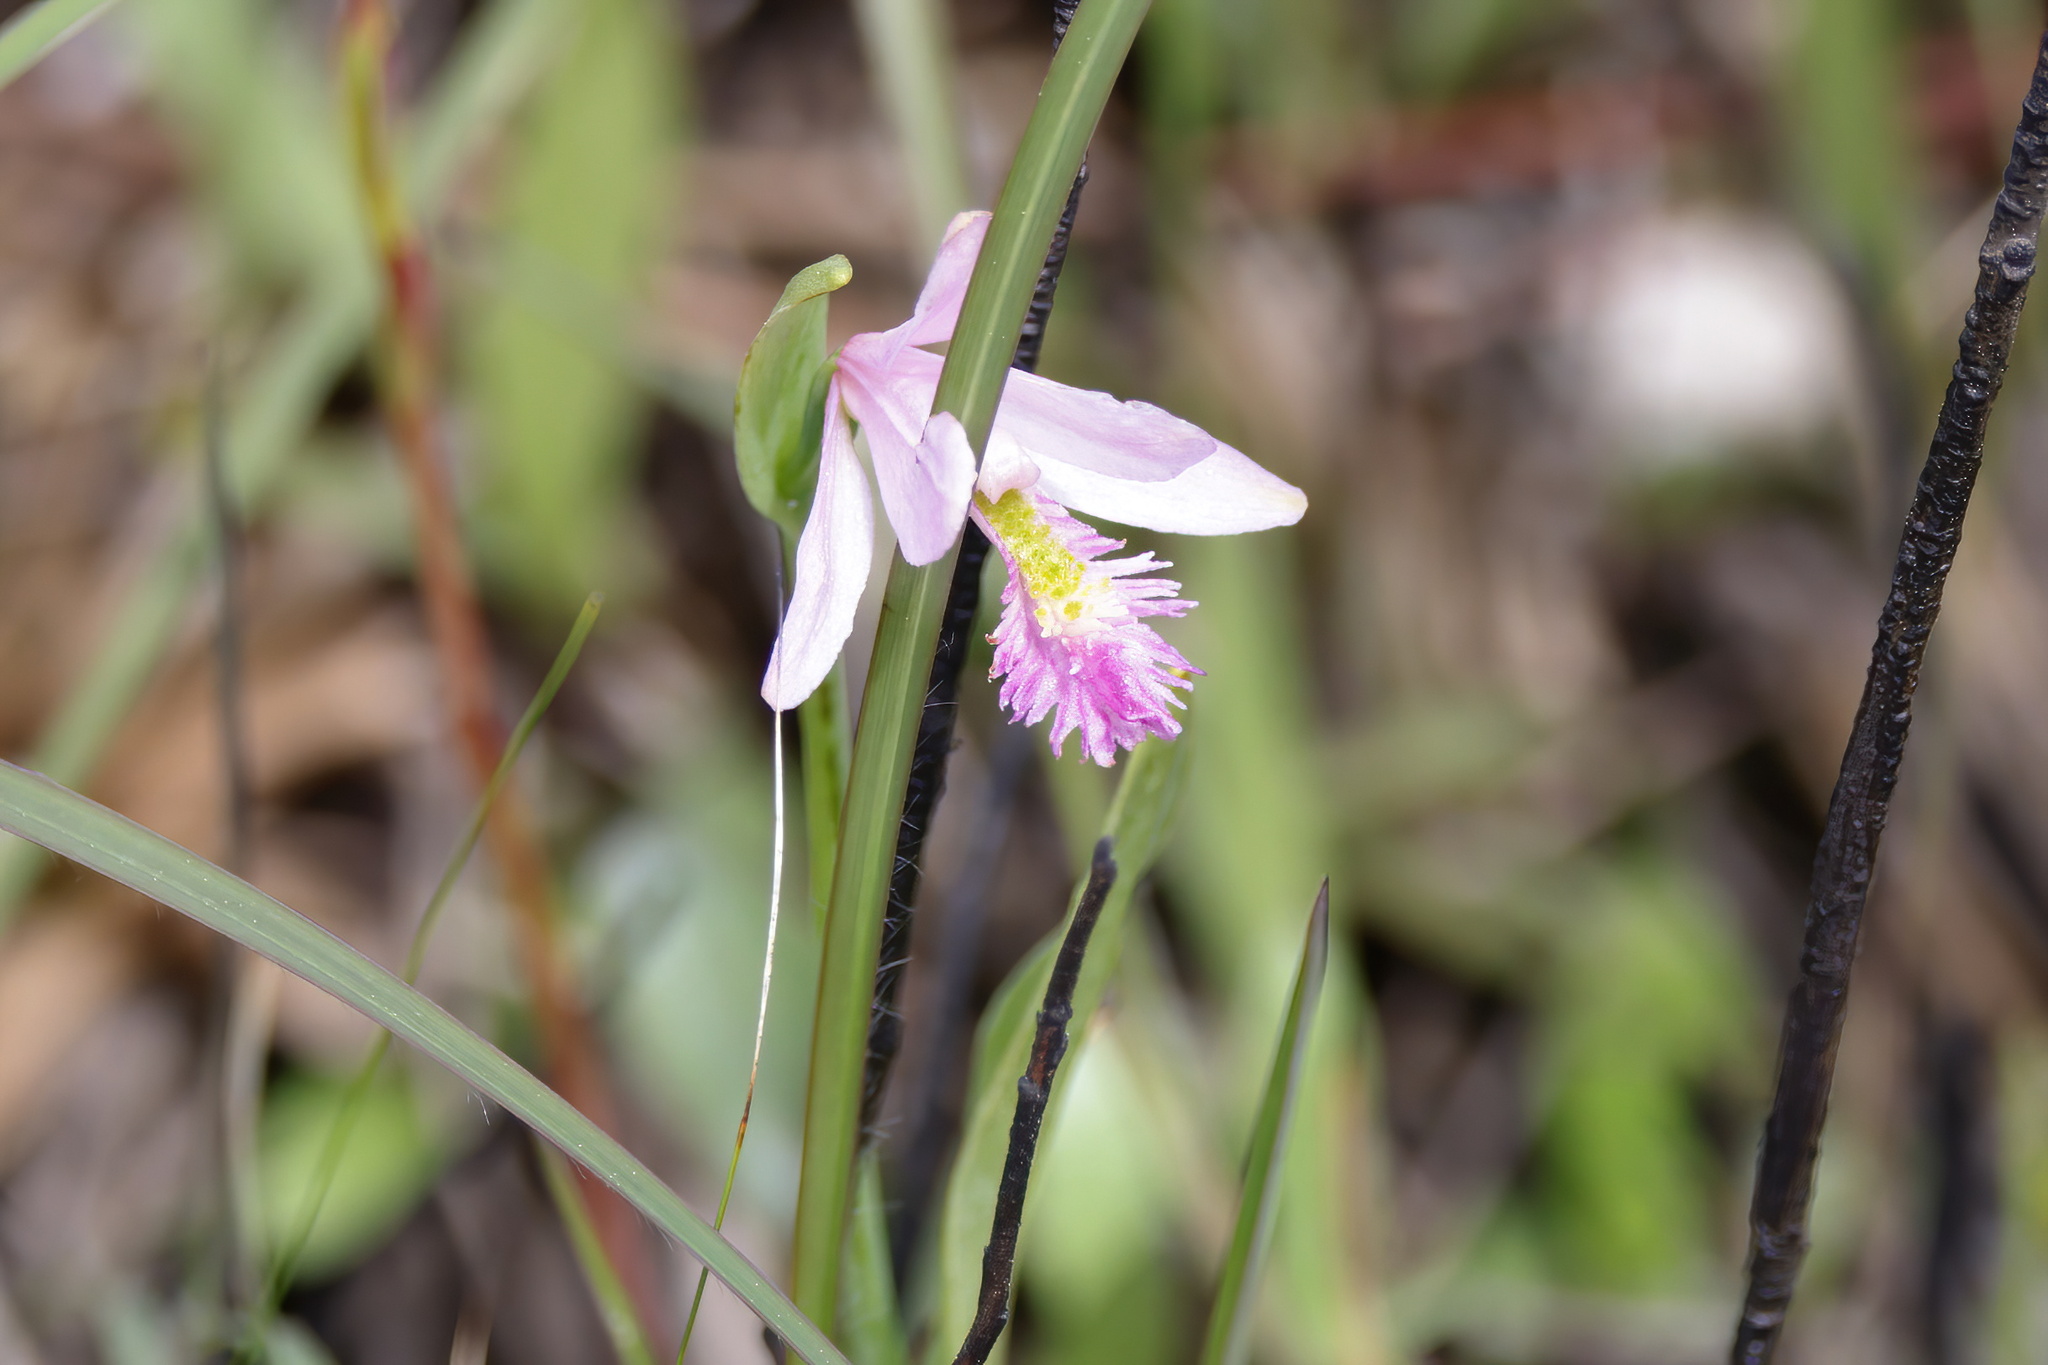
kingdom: Plantae
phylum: Tracheophyta
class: Liliopsida
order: Asparagales
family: Orchidaceae
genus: Pogonia
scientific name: Pogonia ophioglossoides
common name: Rose pogonia
